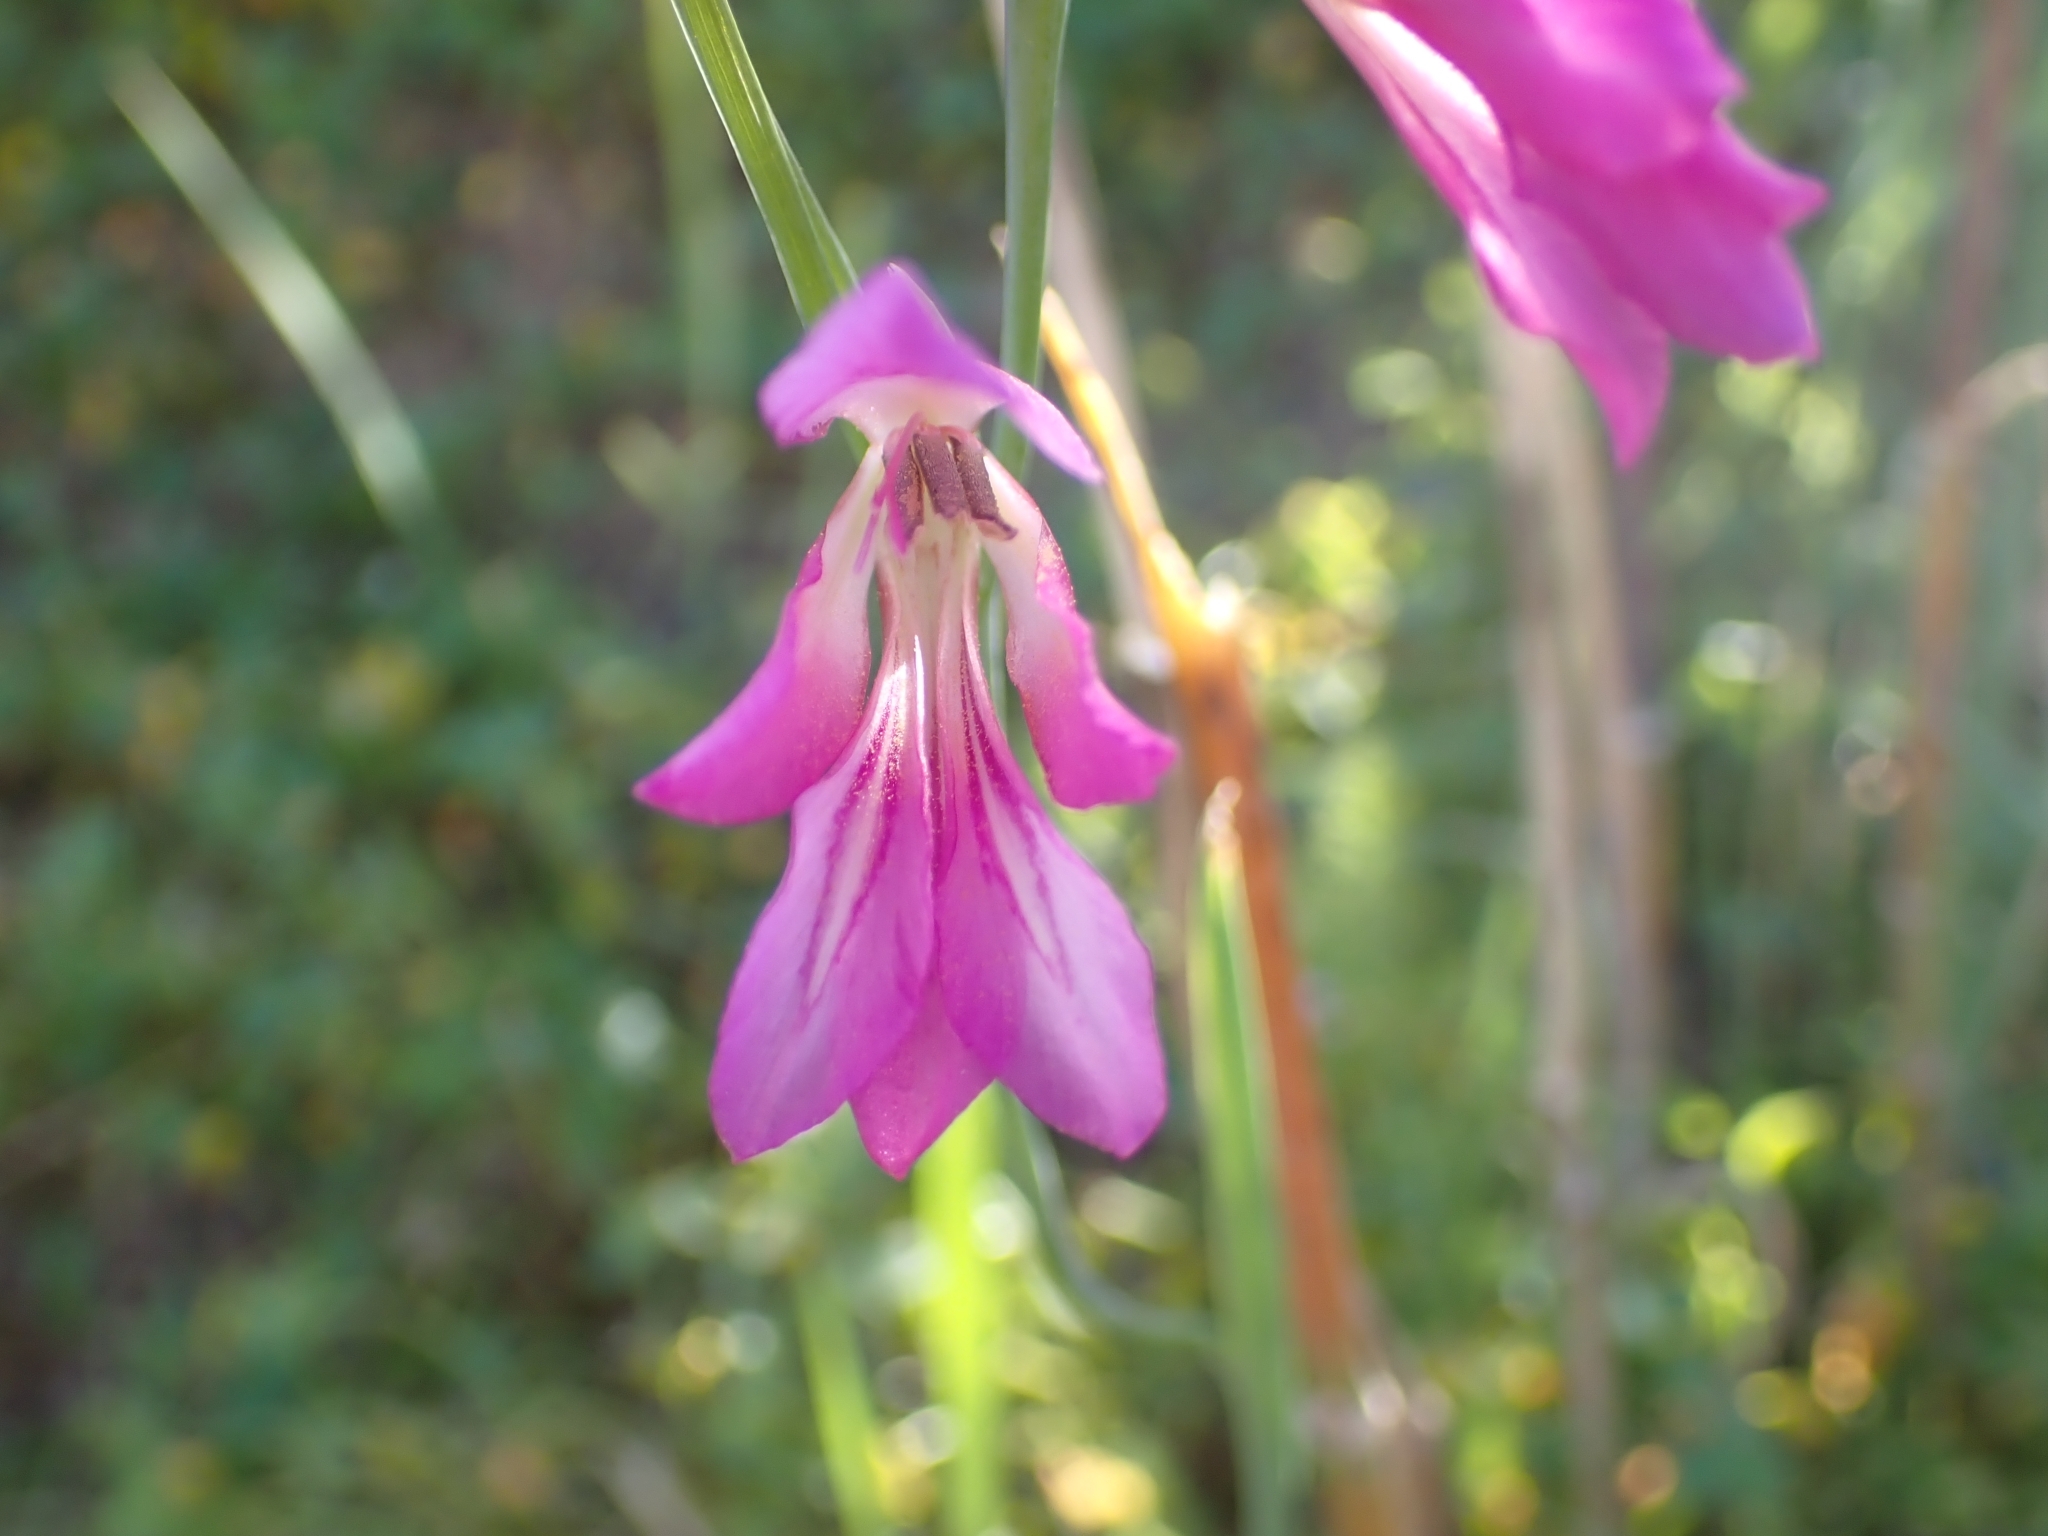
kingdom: Plantae
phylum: Tracheophyta
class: Liliopsida
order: Asparagales
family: Iridaceae
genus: Gladiolus
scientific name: Gladiolus italicus
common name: Field gladiolus
